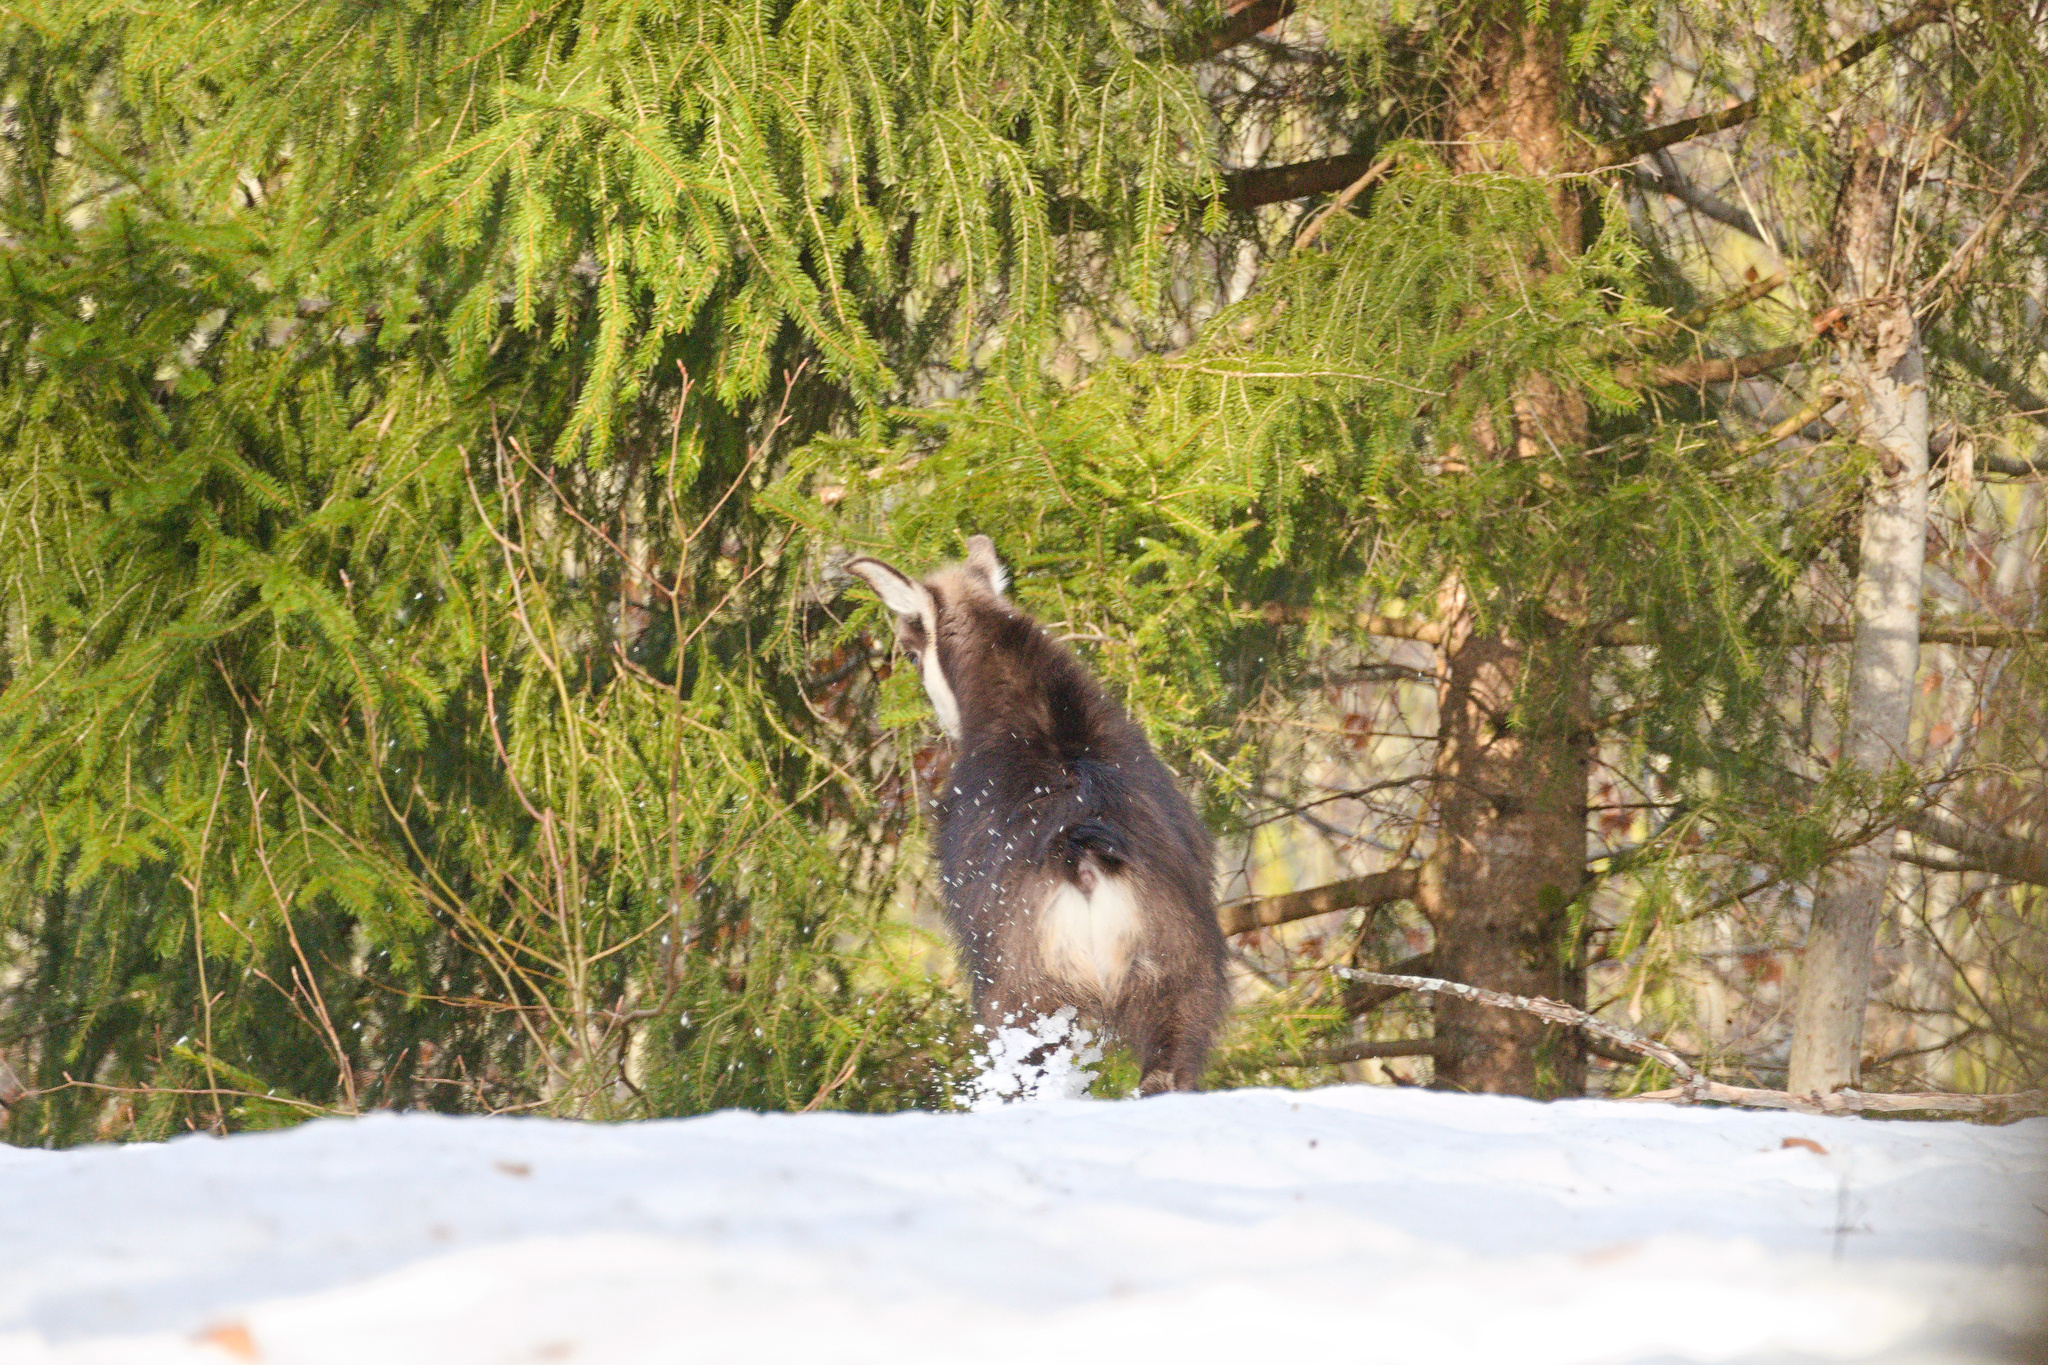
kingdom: Animalia
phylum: Chordata
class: Mammalia
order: Artiodactyla
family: Bovidae
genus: Rupicapra
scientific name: Rupicapra rupicapra
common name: Chamois
